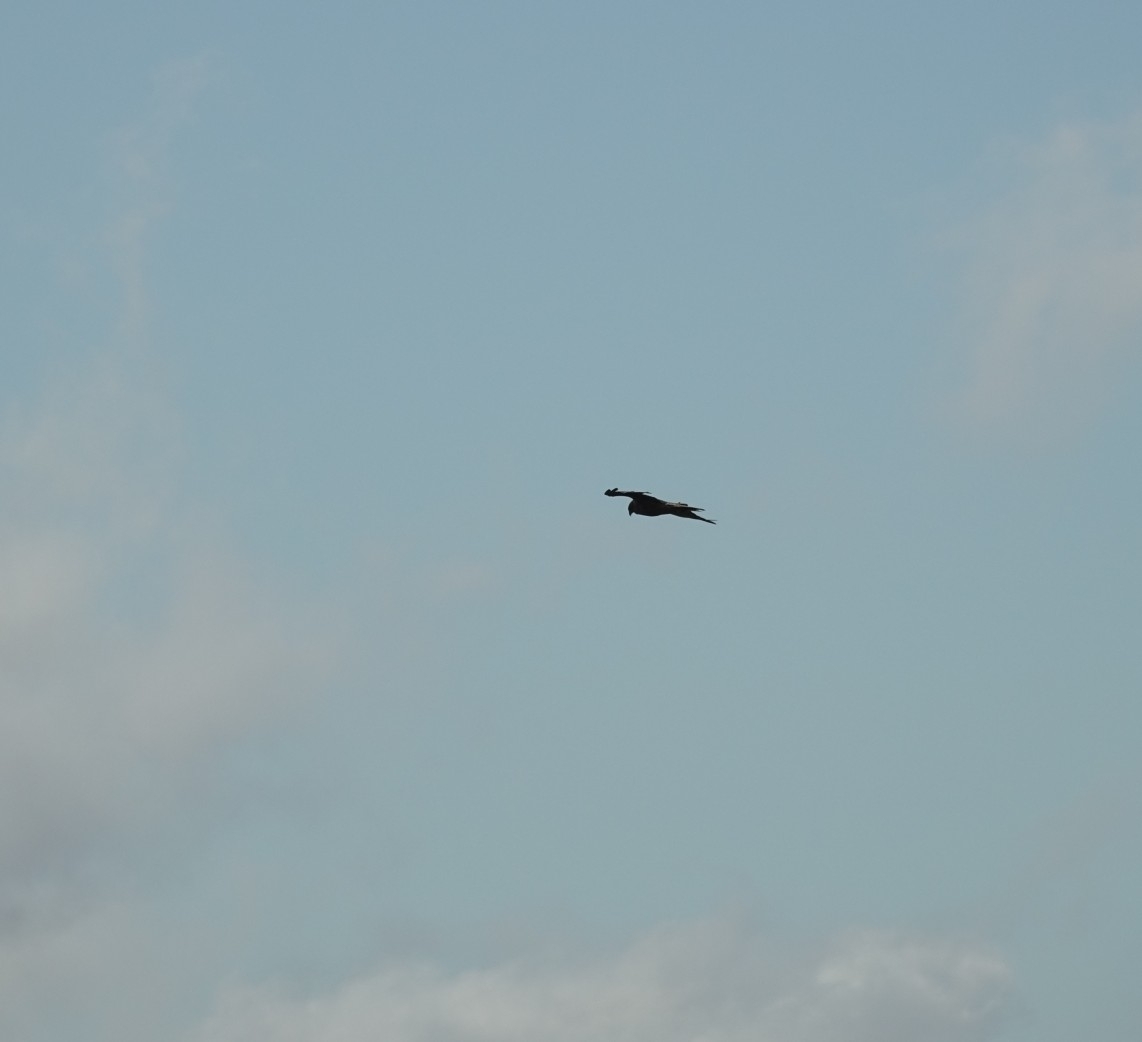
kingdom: Animalia
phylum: Chordata
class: Aves
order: Accipitriformes
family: Accipitridae
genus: Circus
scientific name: Circus approximans
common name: Swamp harrier
